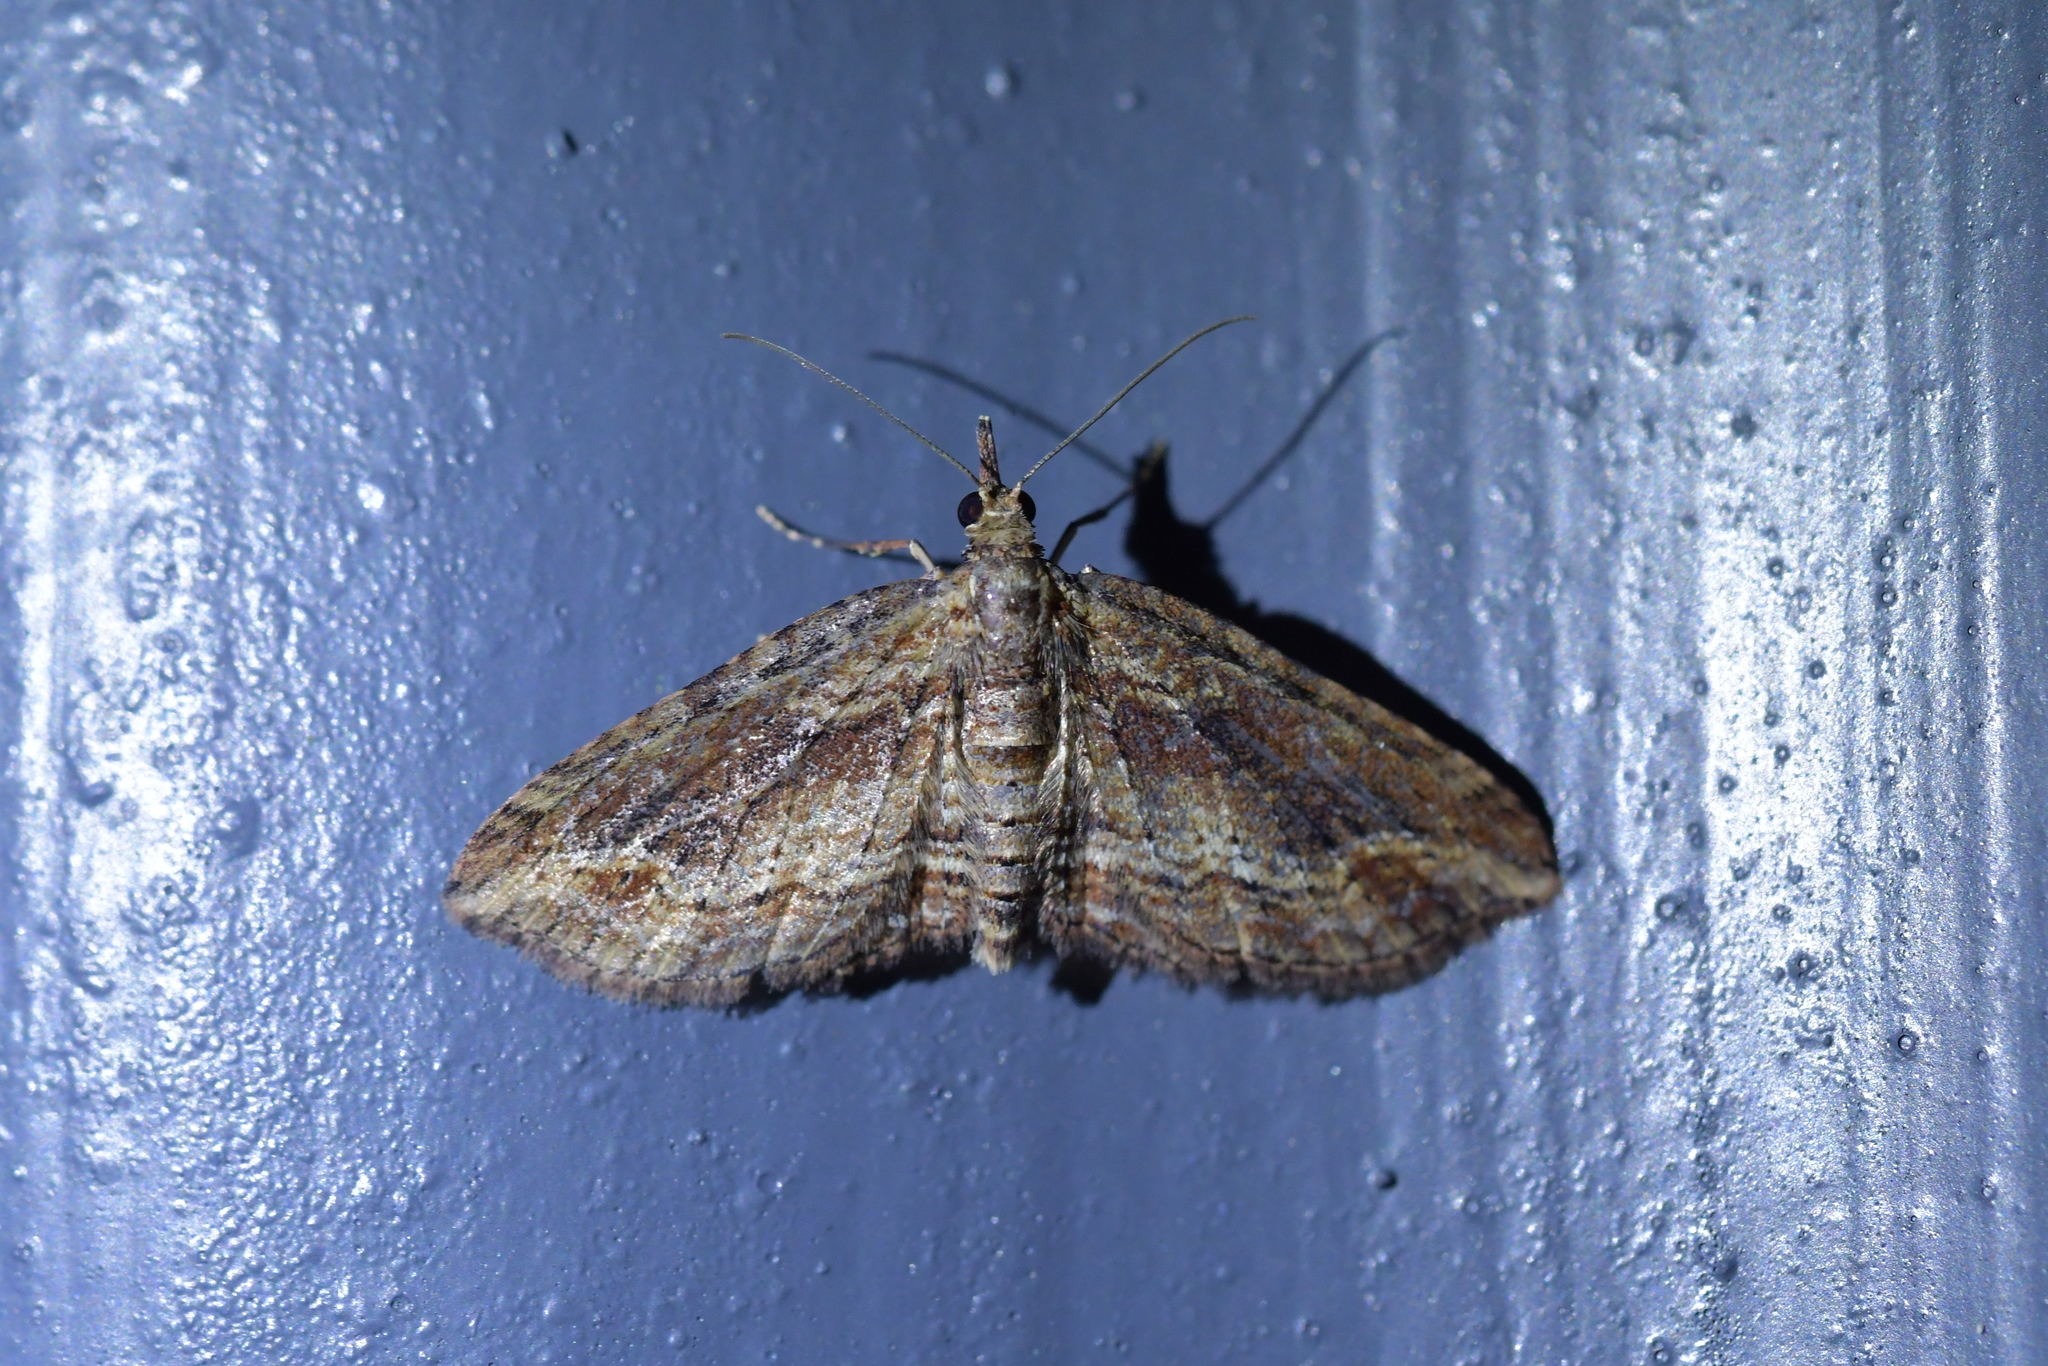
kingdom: Animalia
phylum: Arthropoda
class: Insecta
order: Lepidoptera
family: Geometridae
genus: Chloroclystis
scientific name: Chloroclystis filata
